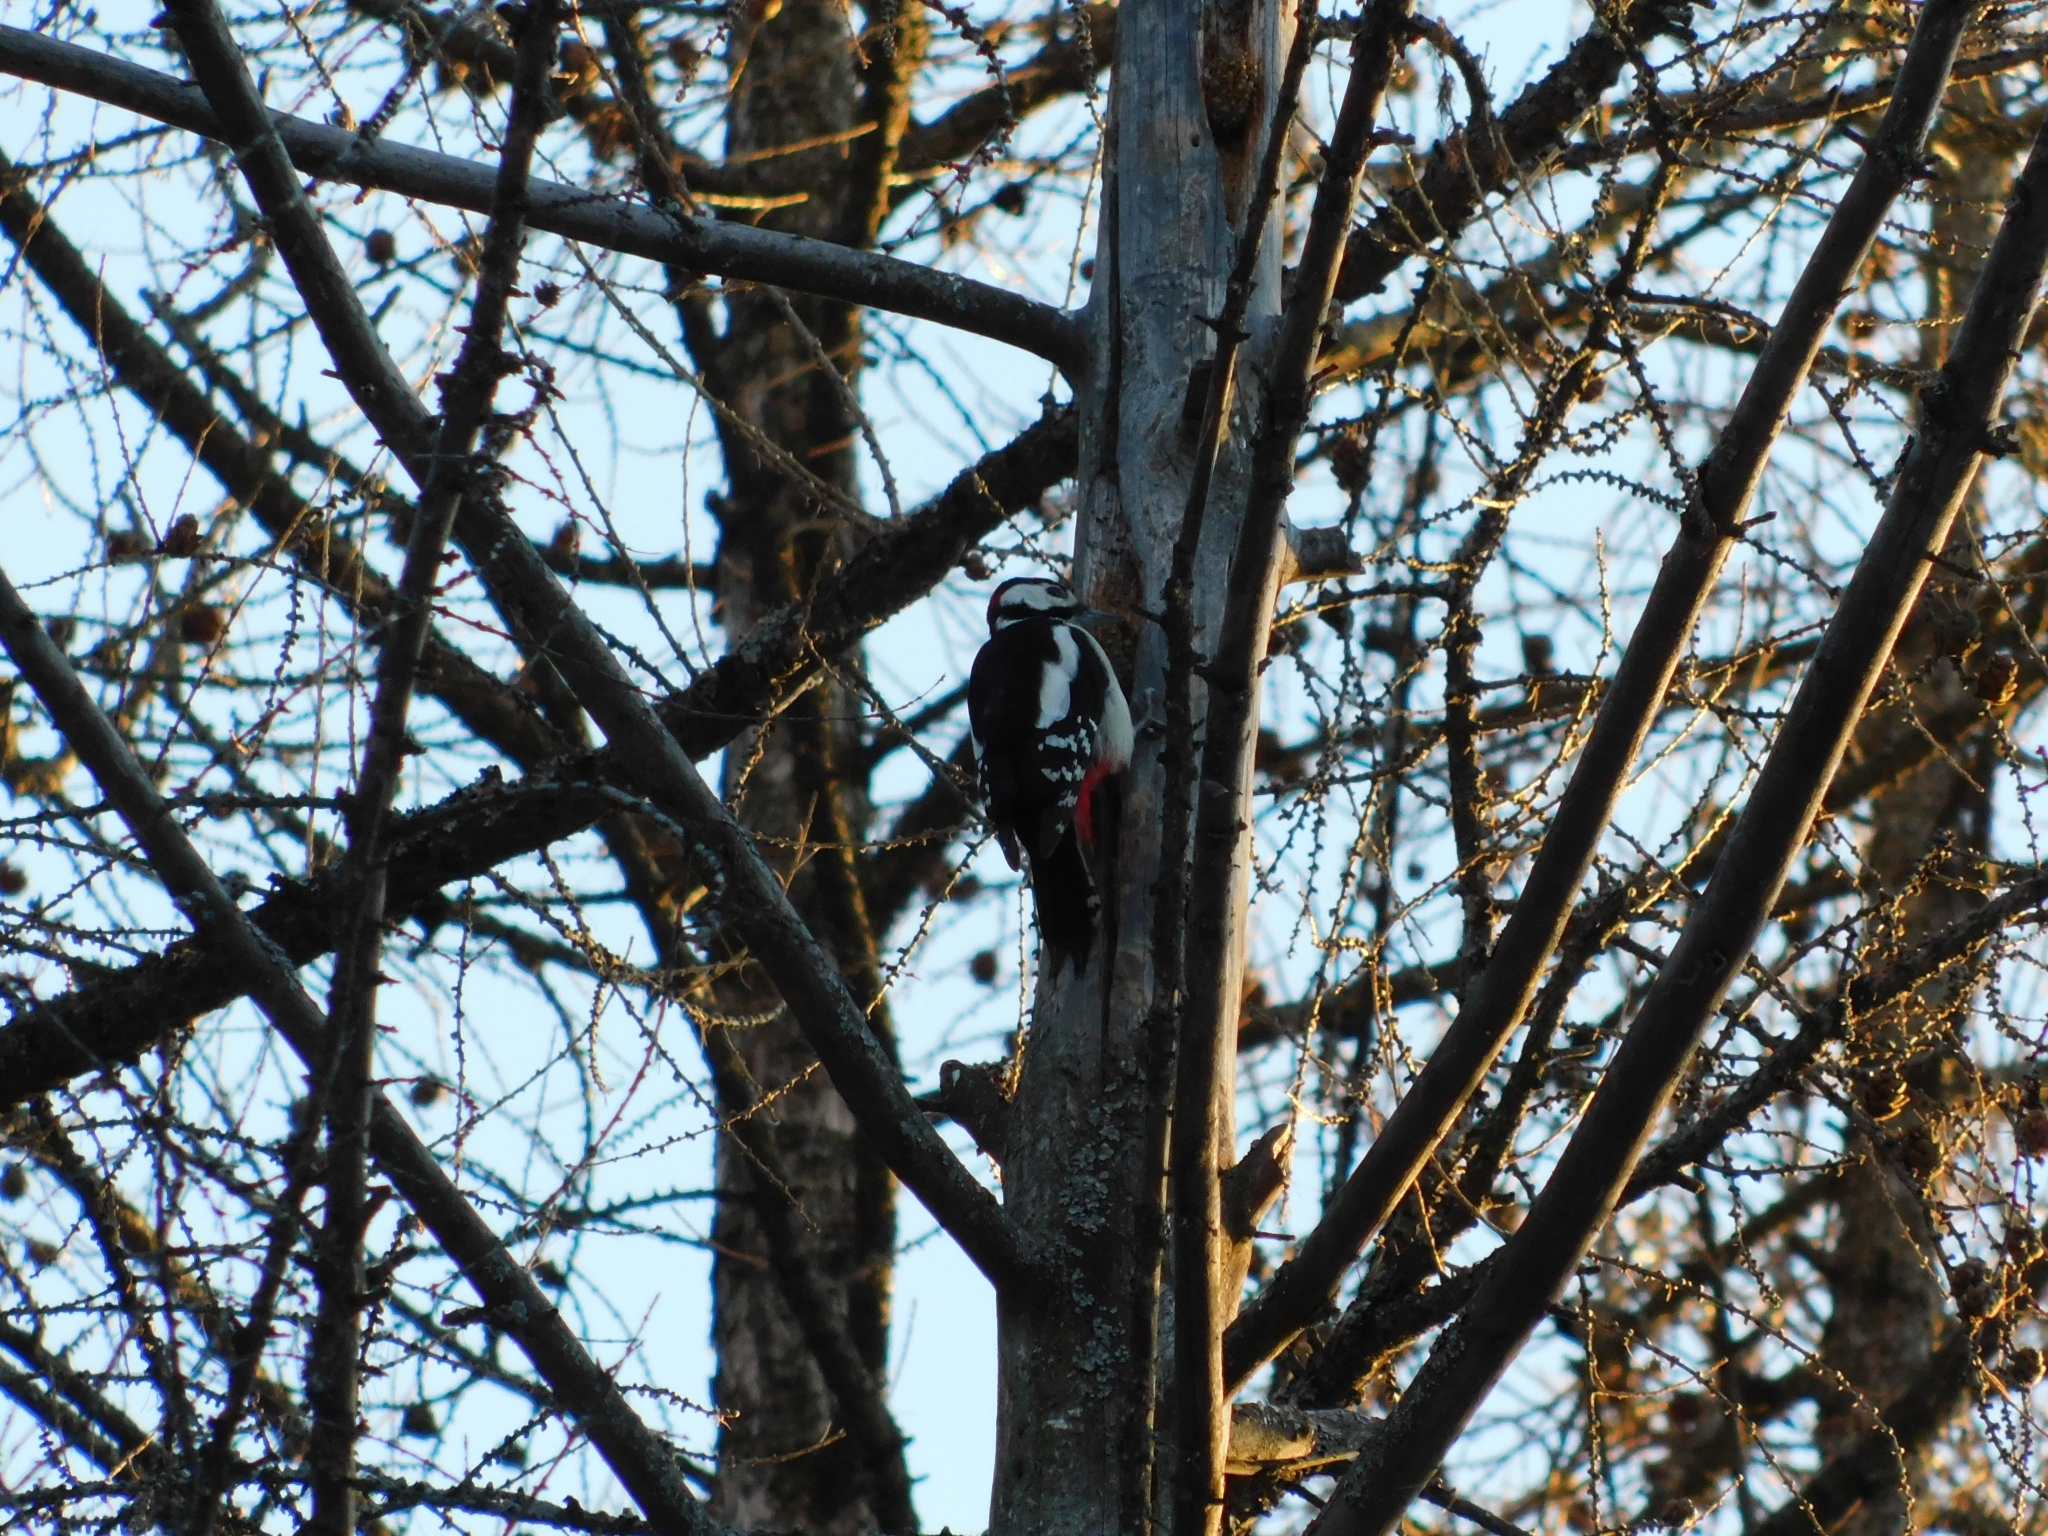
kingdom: Animalia
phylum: Chordata
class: Aves
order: Piciformes
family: Picidae
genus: Dendrocopos
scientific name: Dendrocopos major
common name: Great spotted woodpecker
